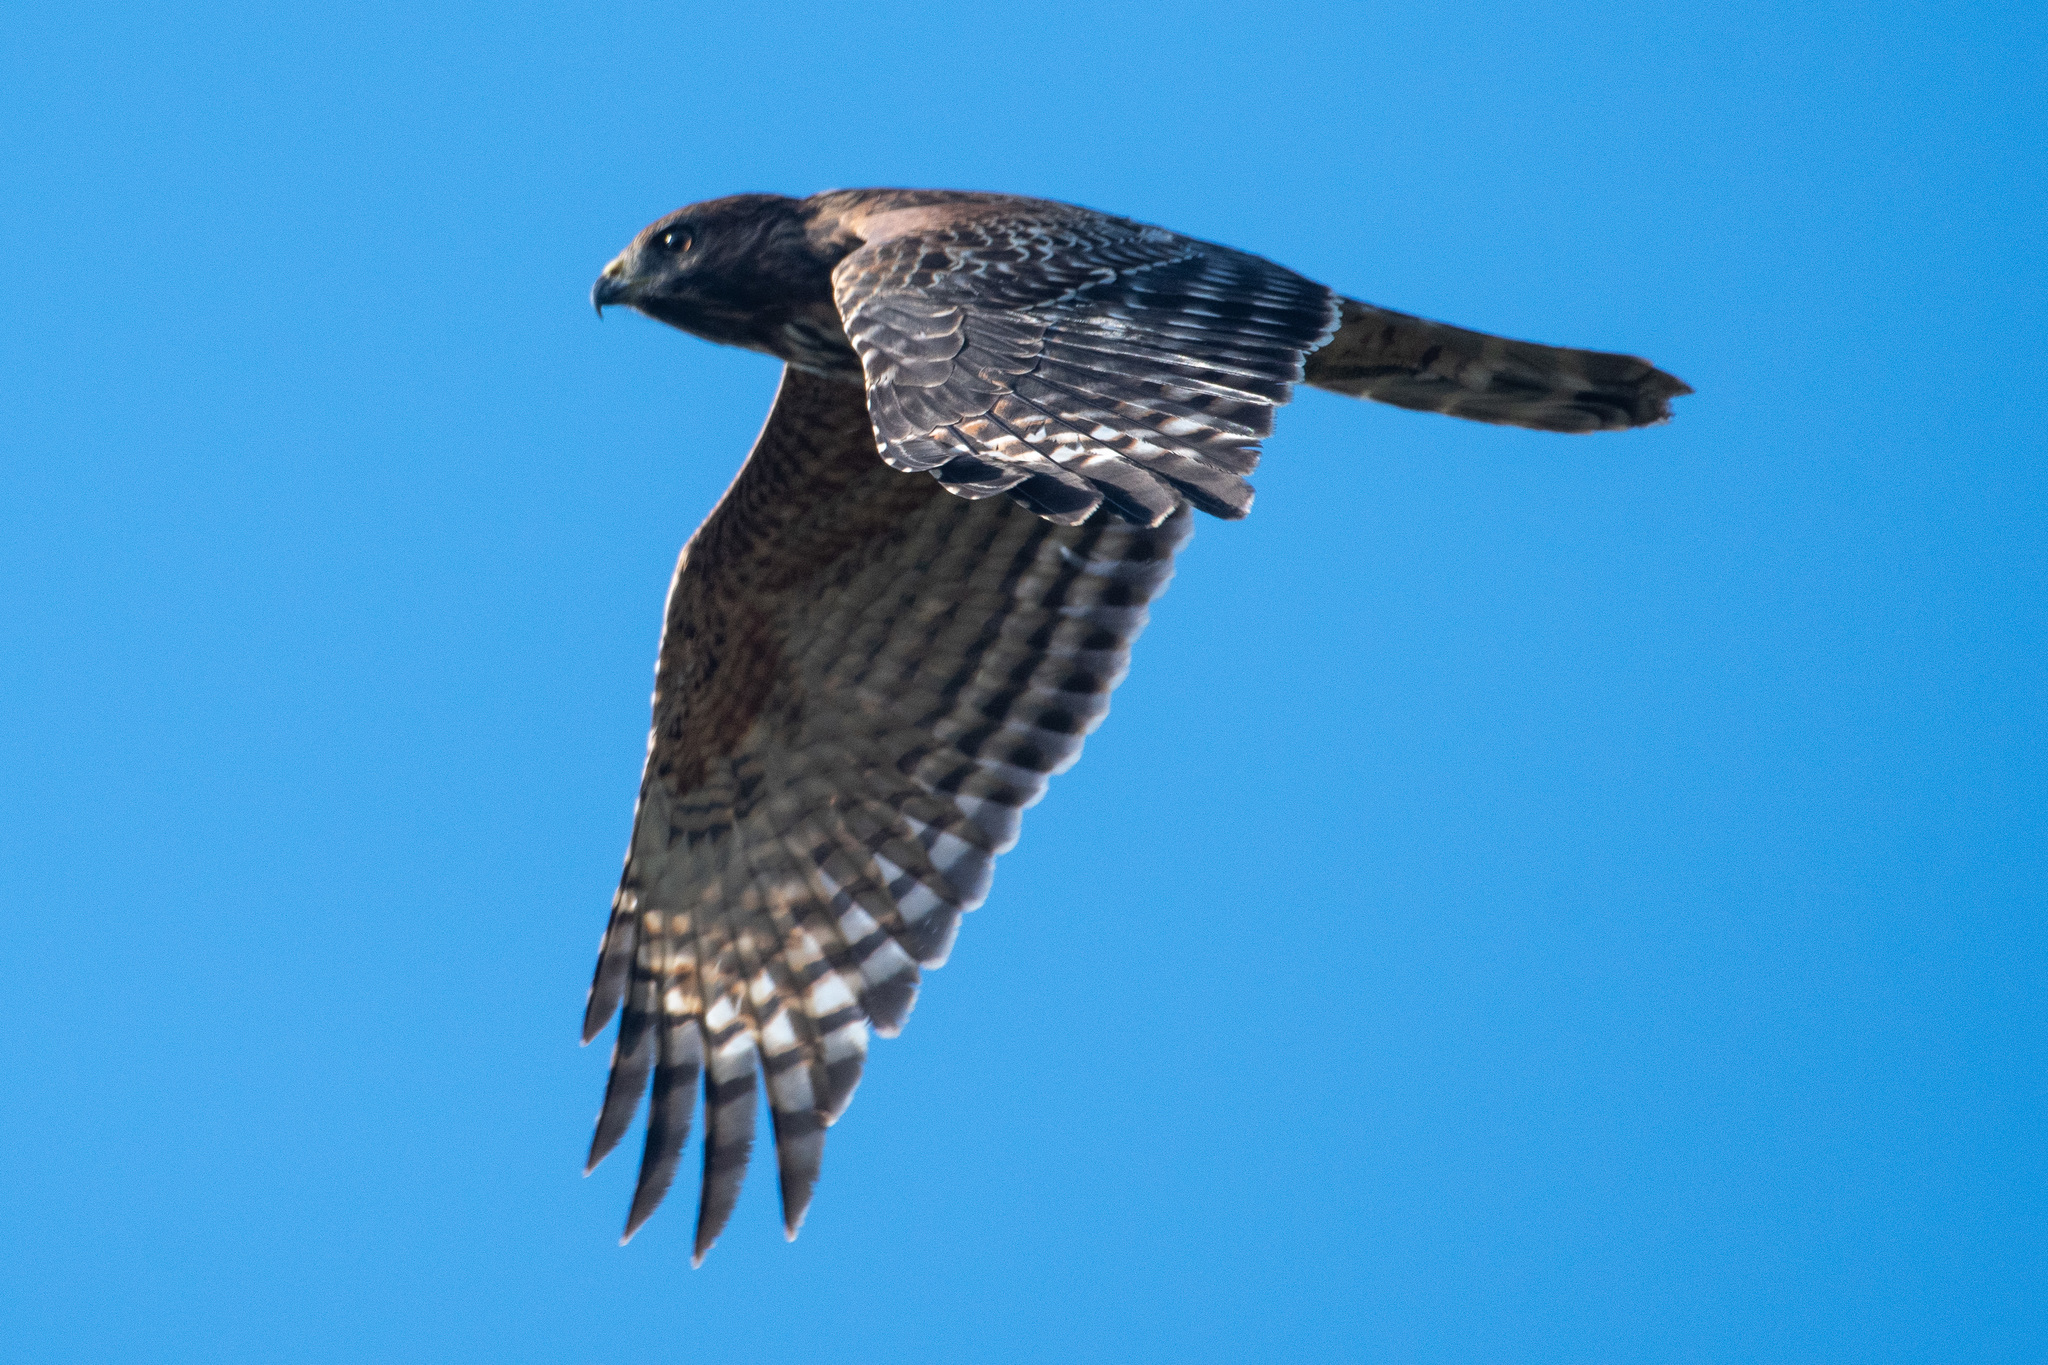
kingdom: Animalia
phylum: Chordata
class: Aves
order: Accipitriformes
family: Accipitridae
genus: Buteo
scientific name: Buteo lineatus
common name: Red-shouldered hawk
